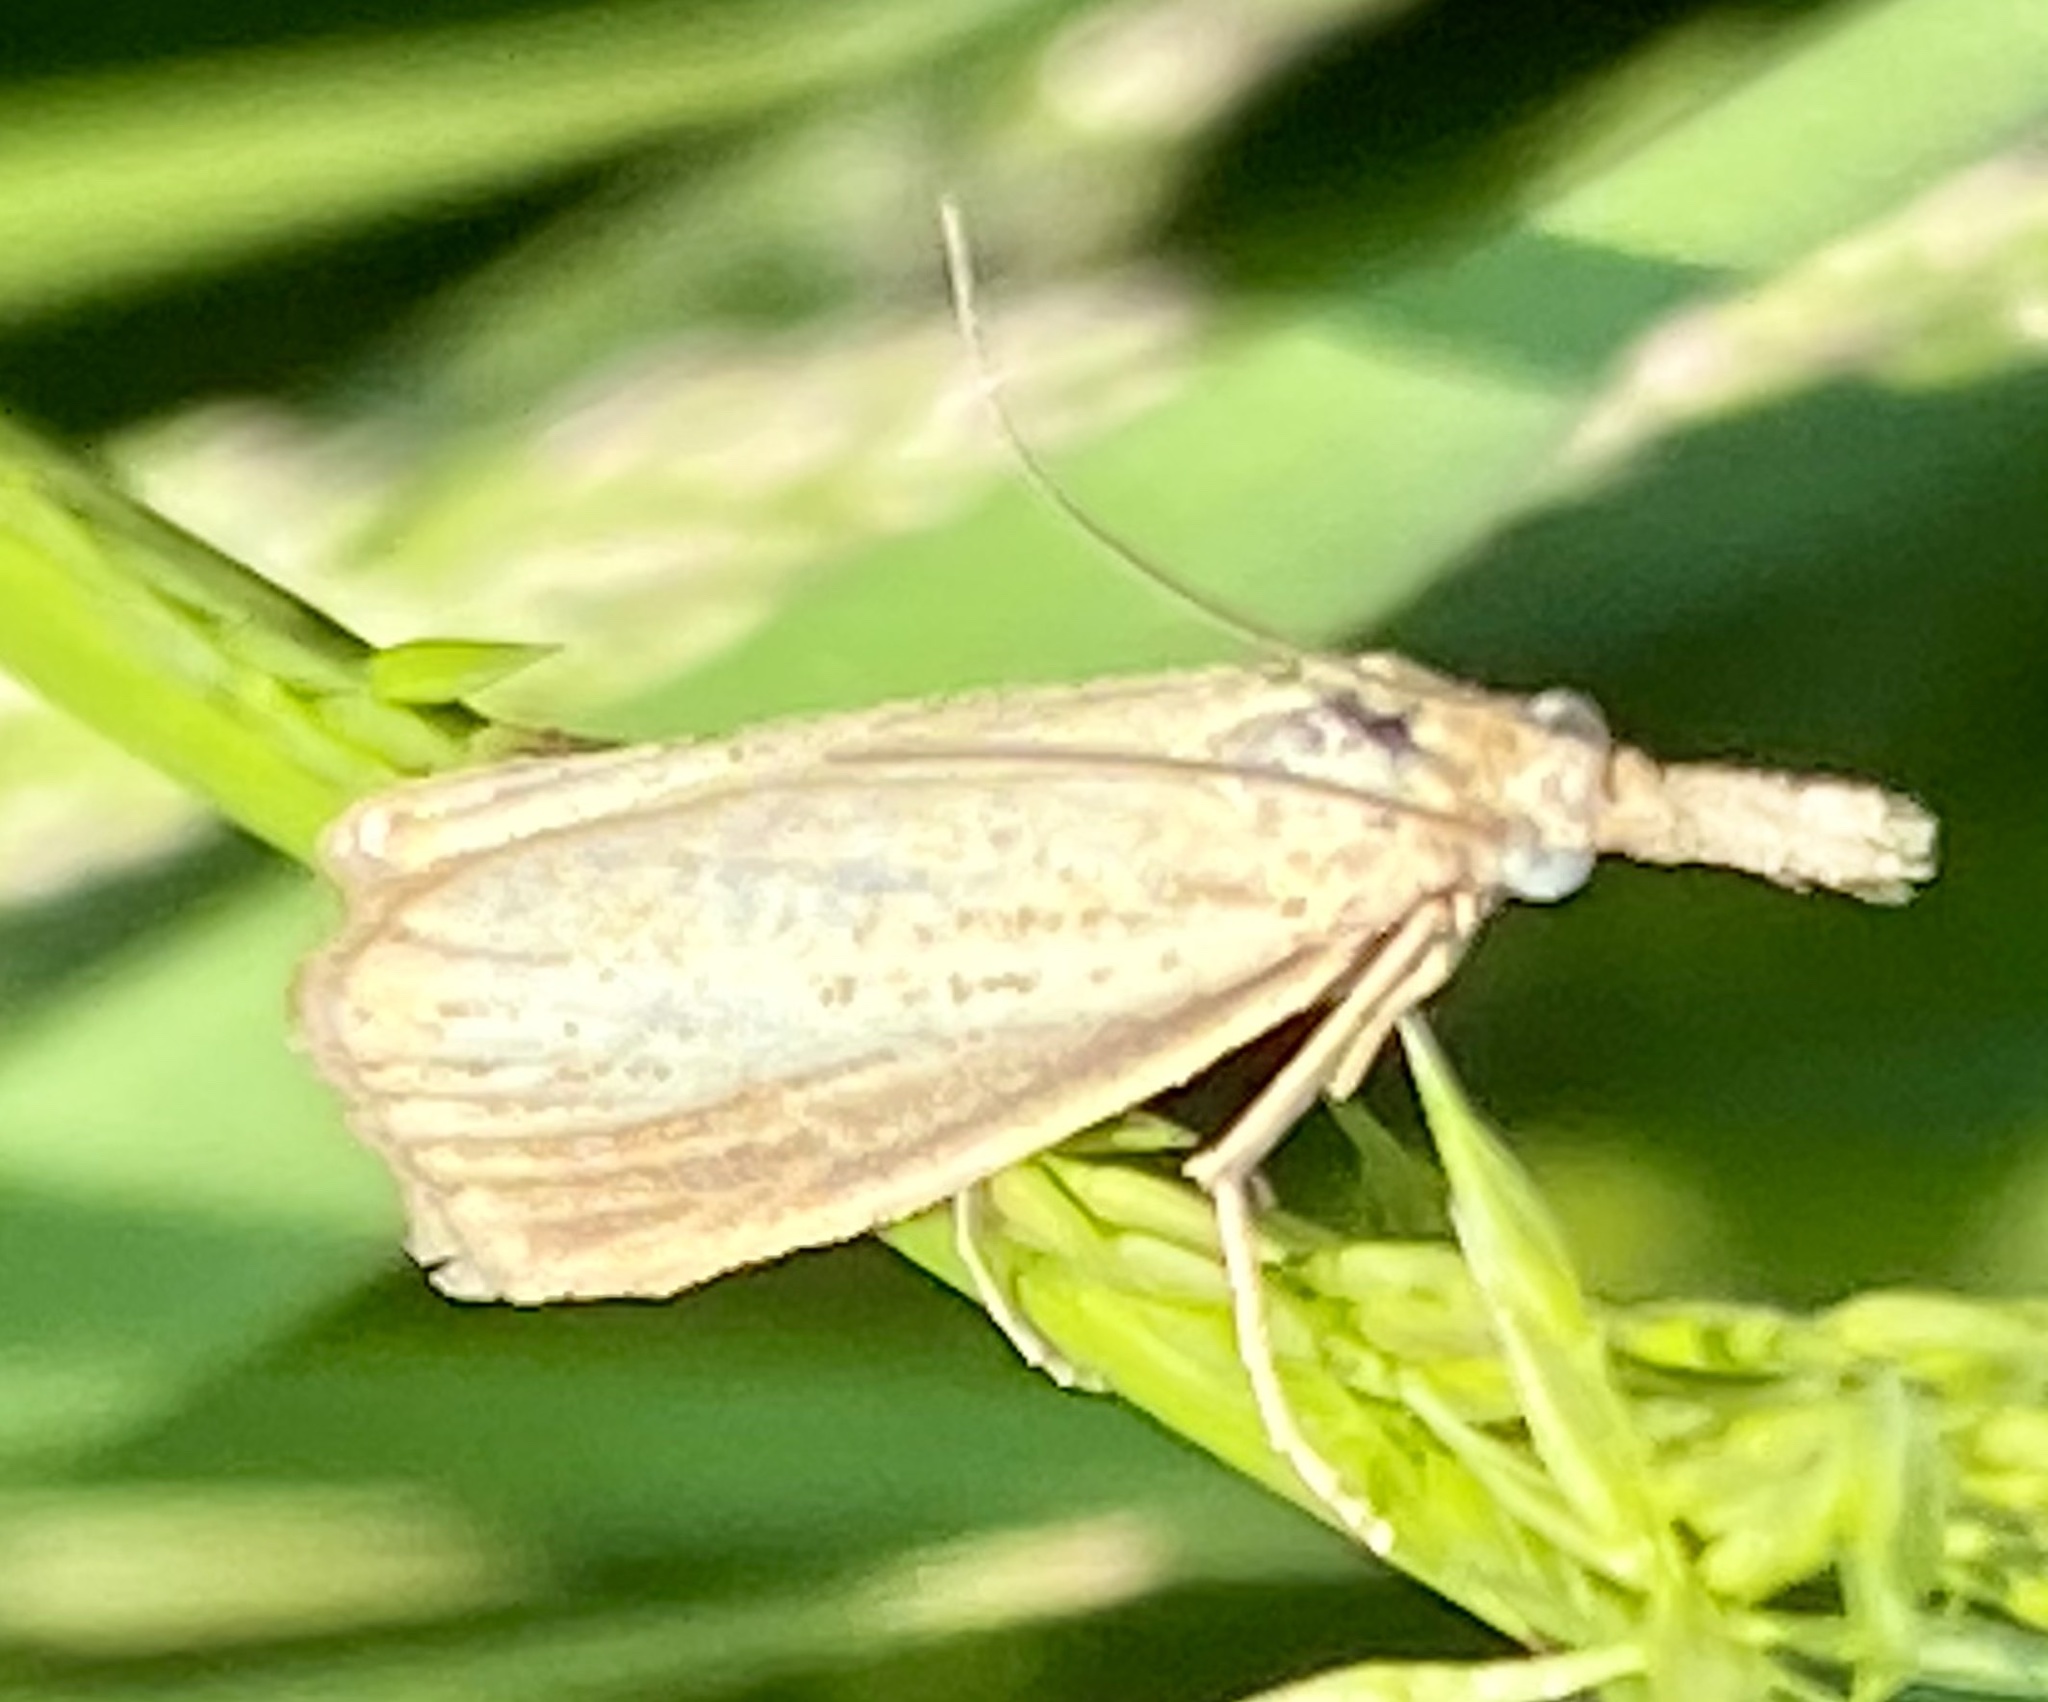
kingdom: Animalia
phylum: Arthropoda
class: Insecta
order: Lepidoptera
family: Crambidae
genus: Agriphila
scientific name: Agriphila straminella
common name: Straw grass-veneer
